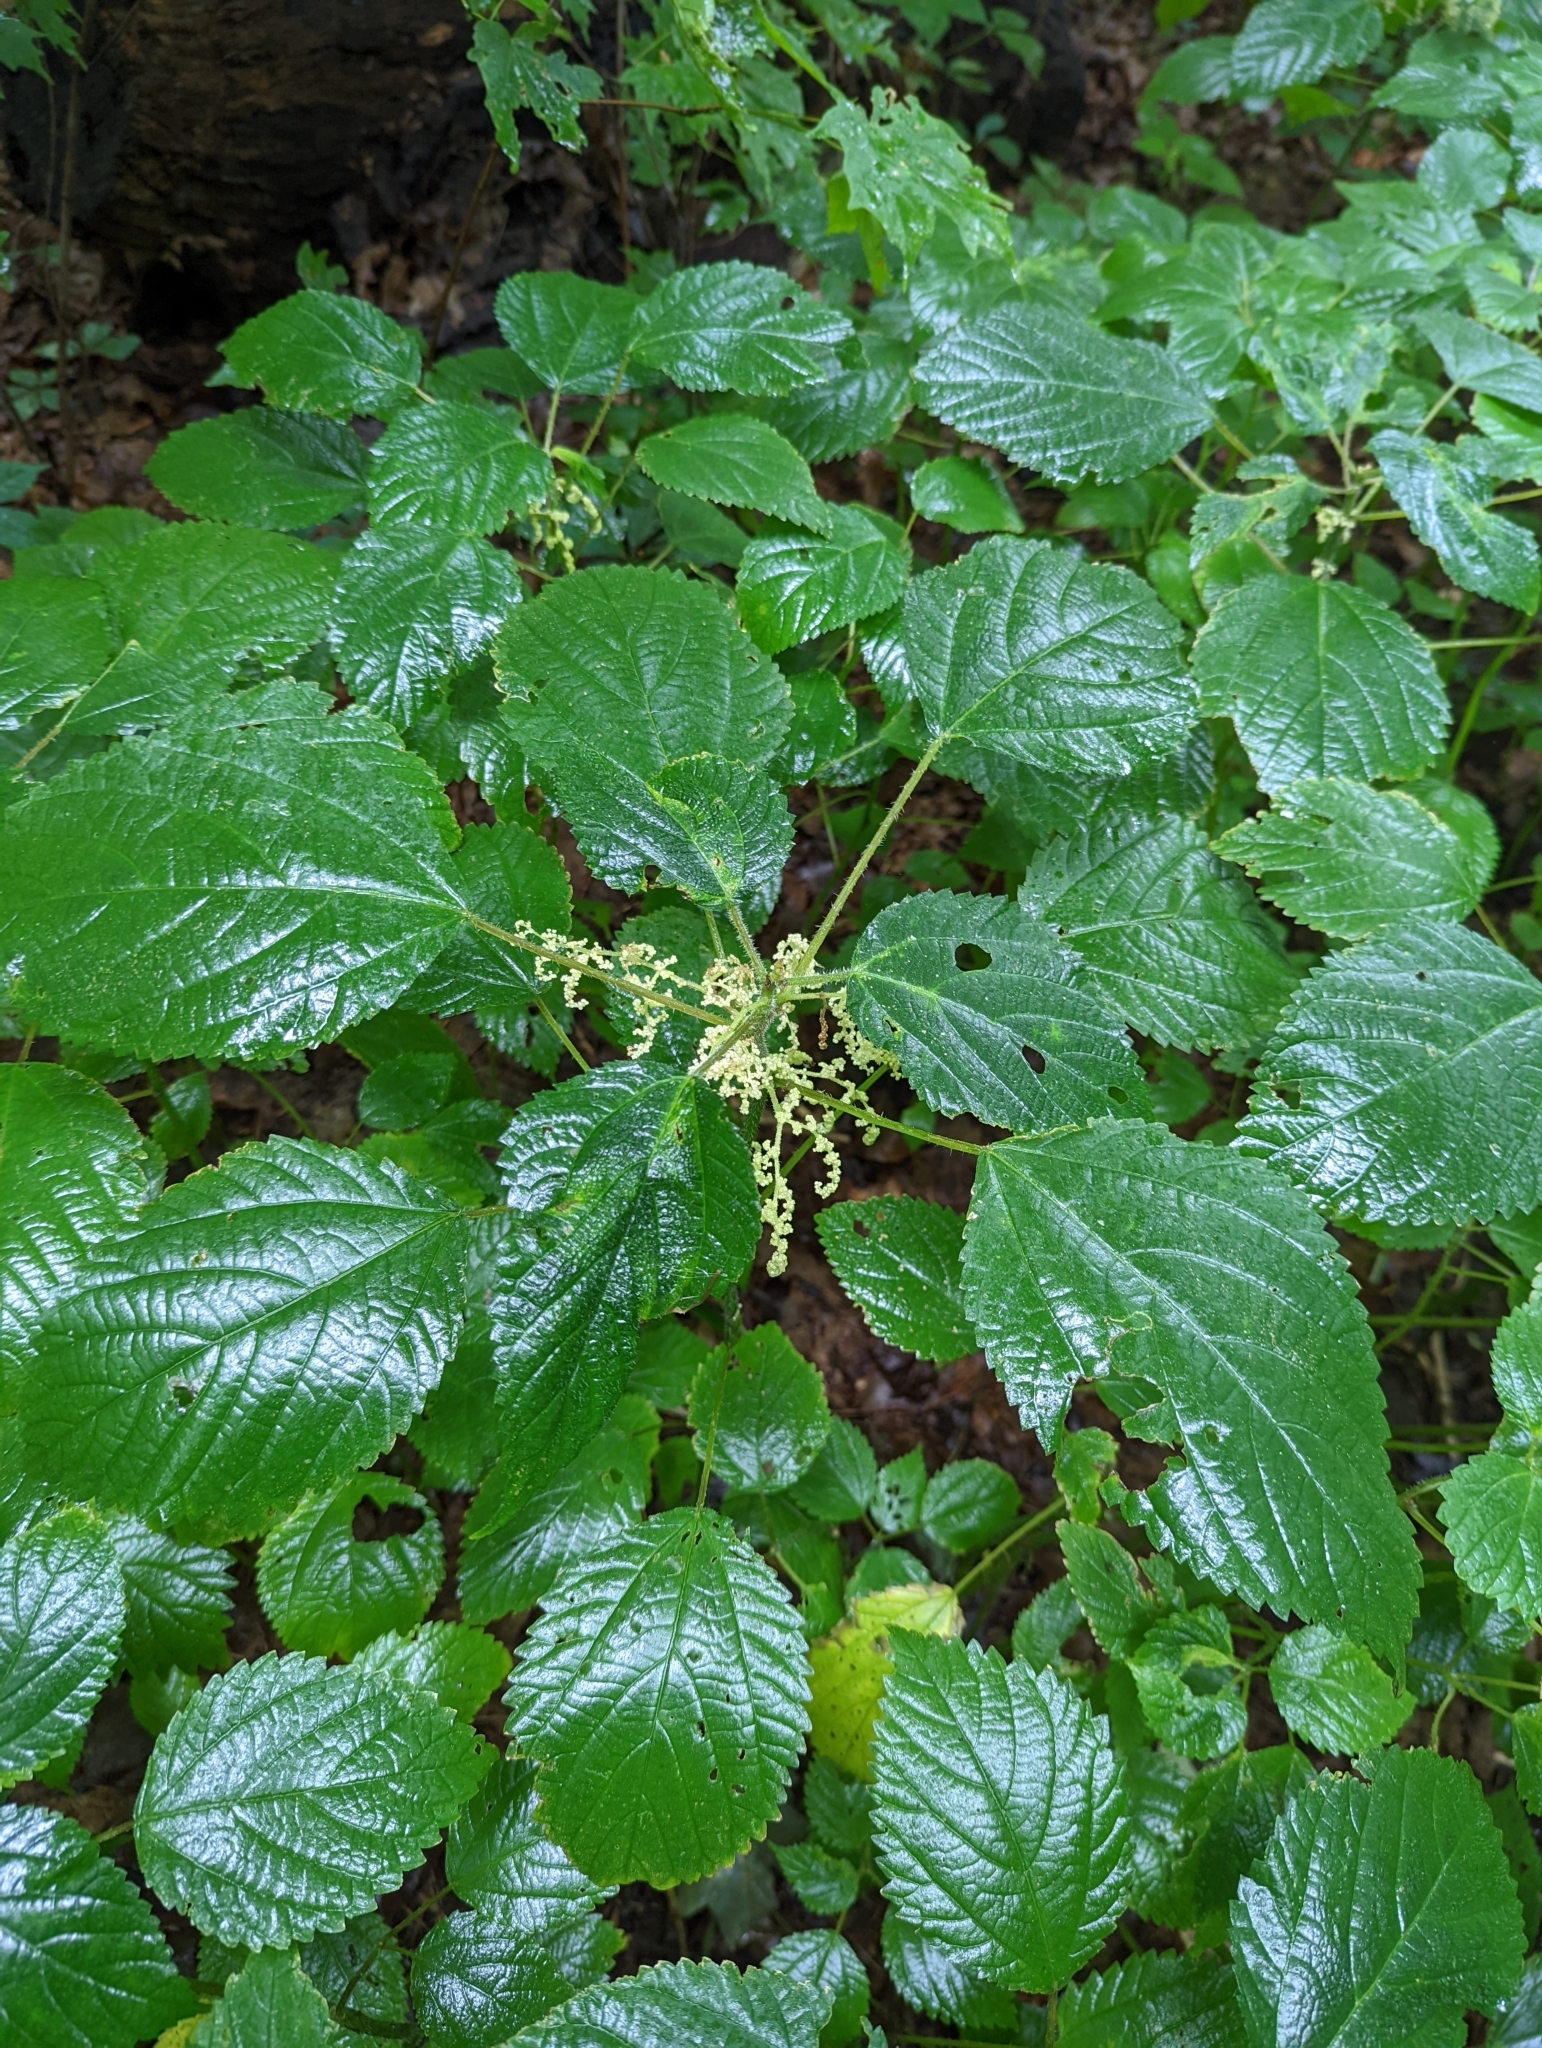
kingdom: Plantae
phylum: Tracheophyta
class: Magnoliopsida
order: Rosales
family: Urticaceae
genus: Laportea
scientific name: Laportea canadensis
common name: Canada nettle
